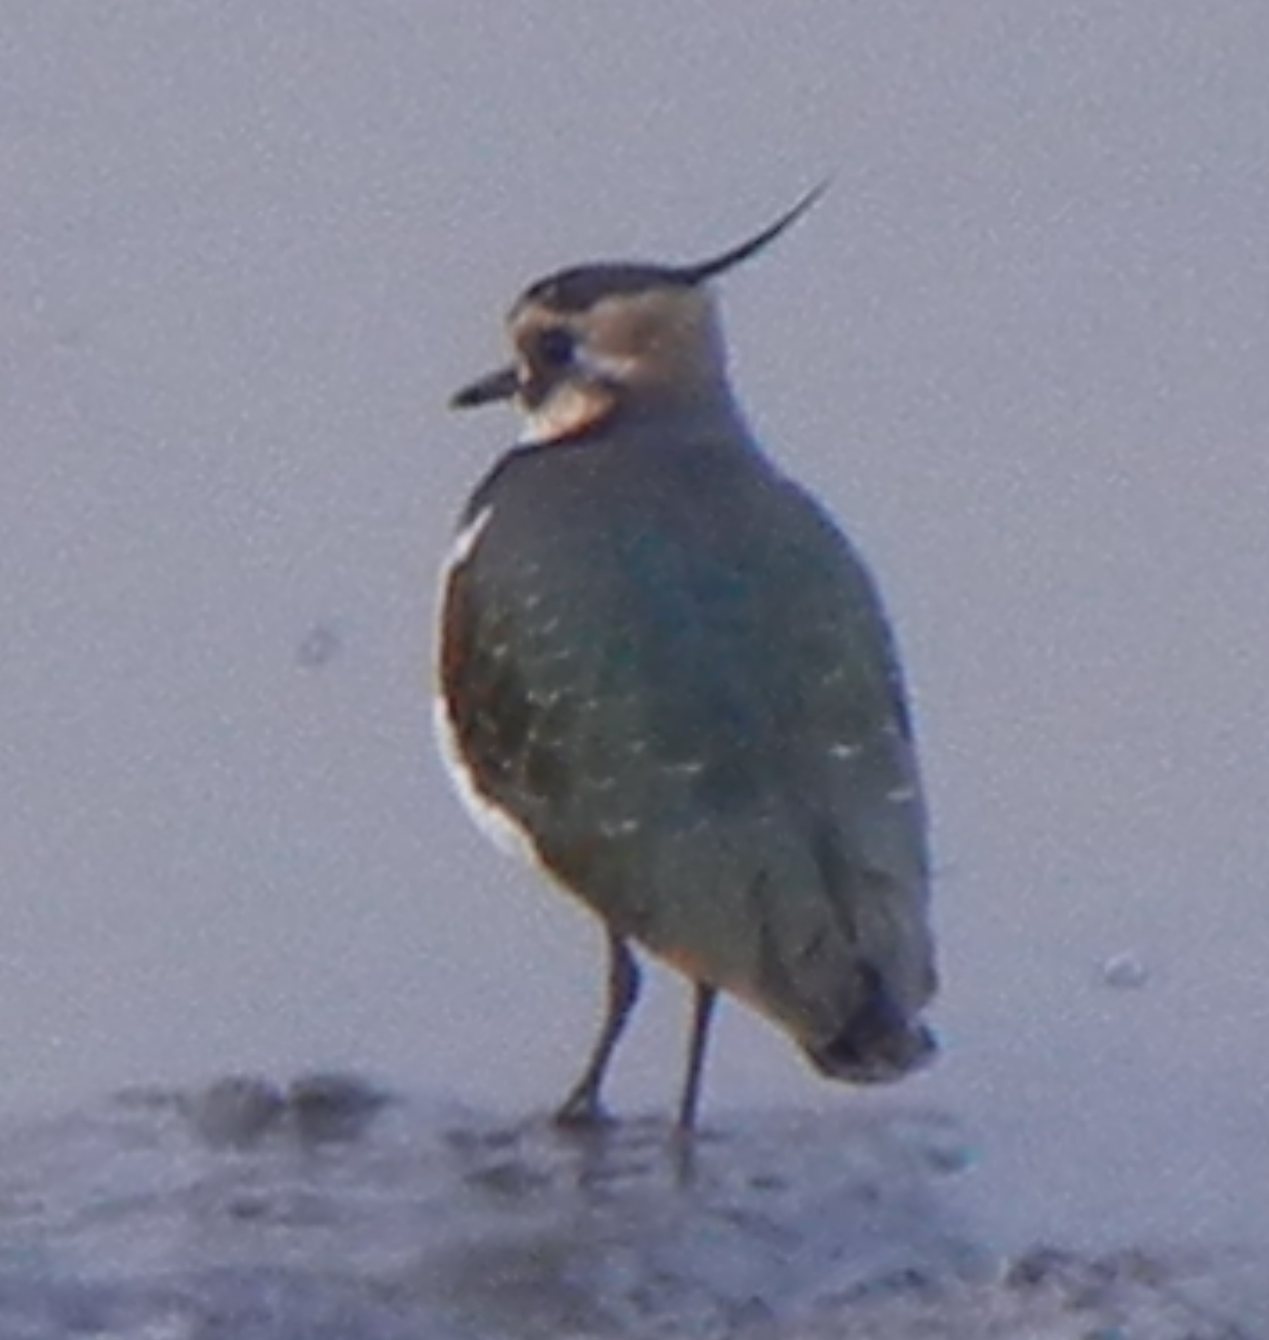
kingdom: Animalia
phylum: Chordata
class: Aves
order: Charadriiformes
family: Charadriidae
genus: Vanellus
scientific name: Vanellus vanellus
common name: Northern lapwing
